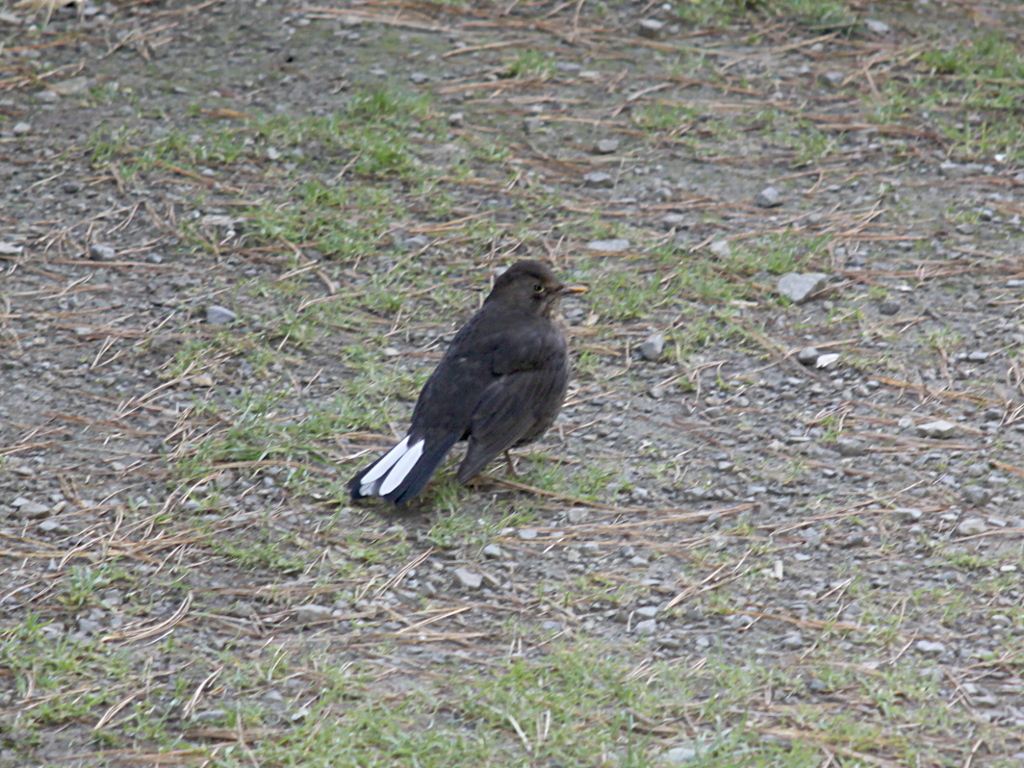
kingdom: Animalia
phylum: Chordata
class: Aves
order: Passeriformes
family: Turdidae
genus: Turdus
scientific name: Turdus merula
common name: Common blackbird
